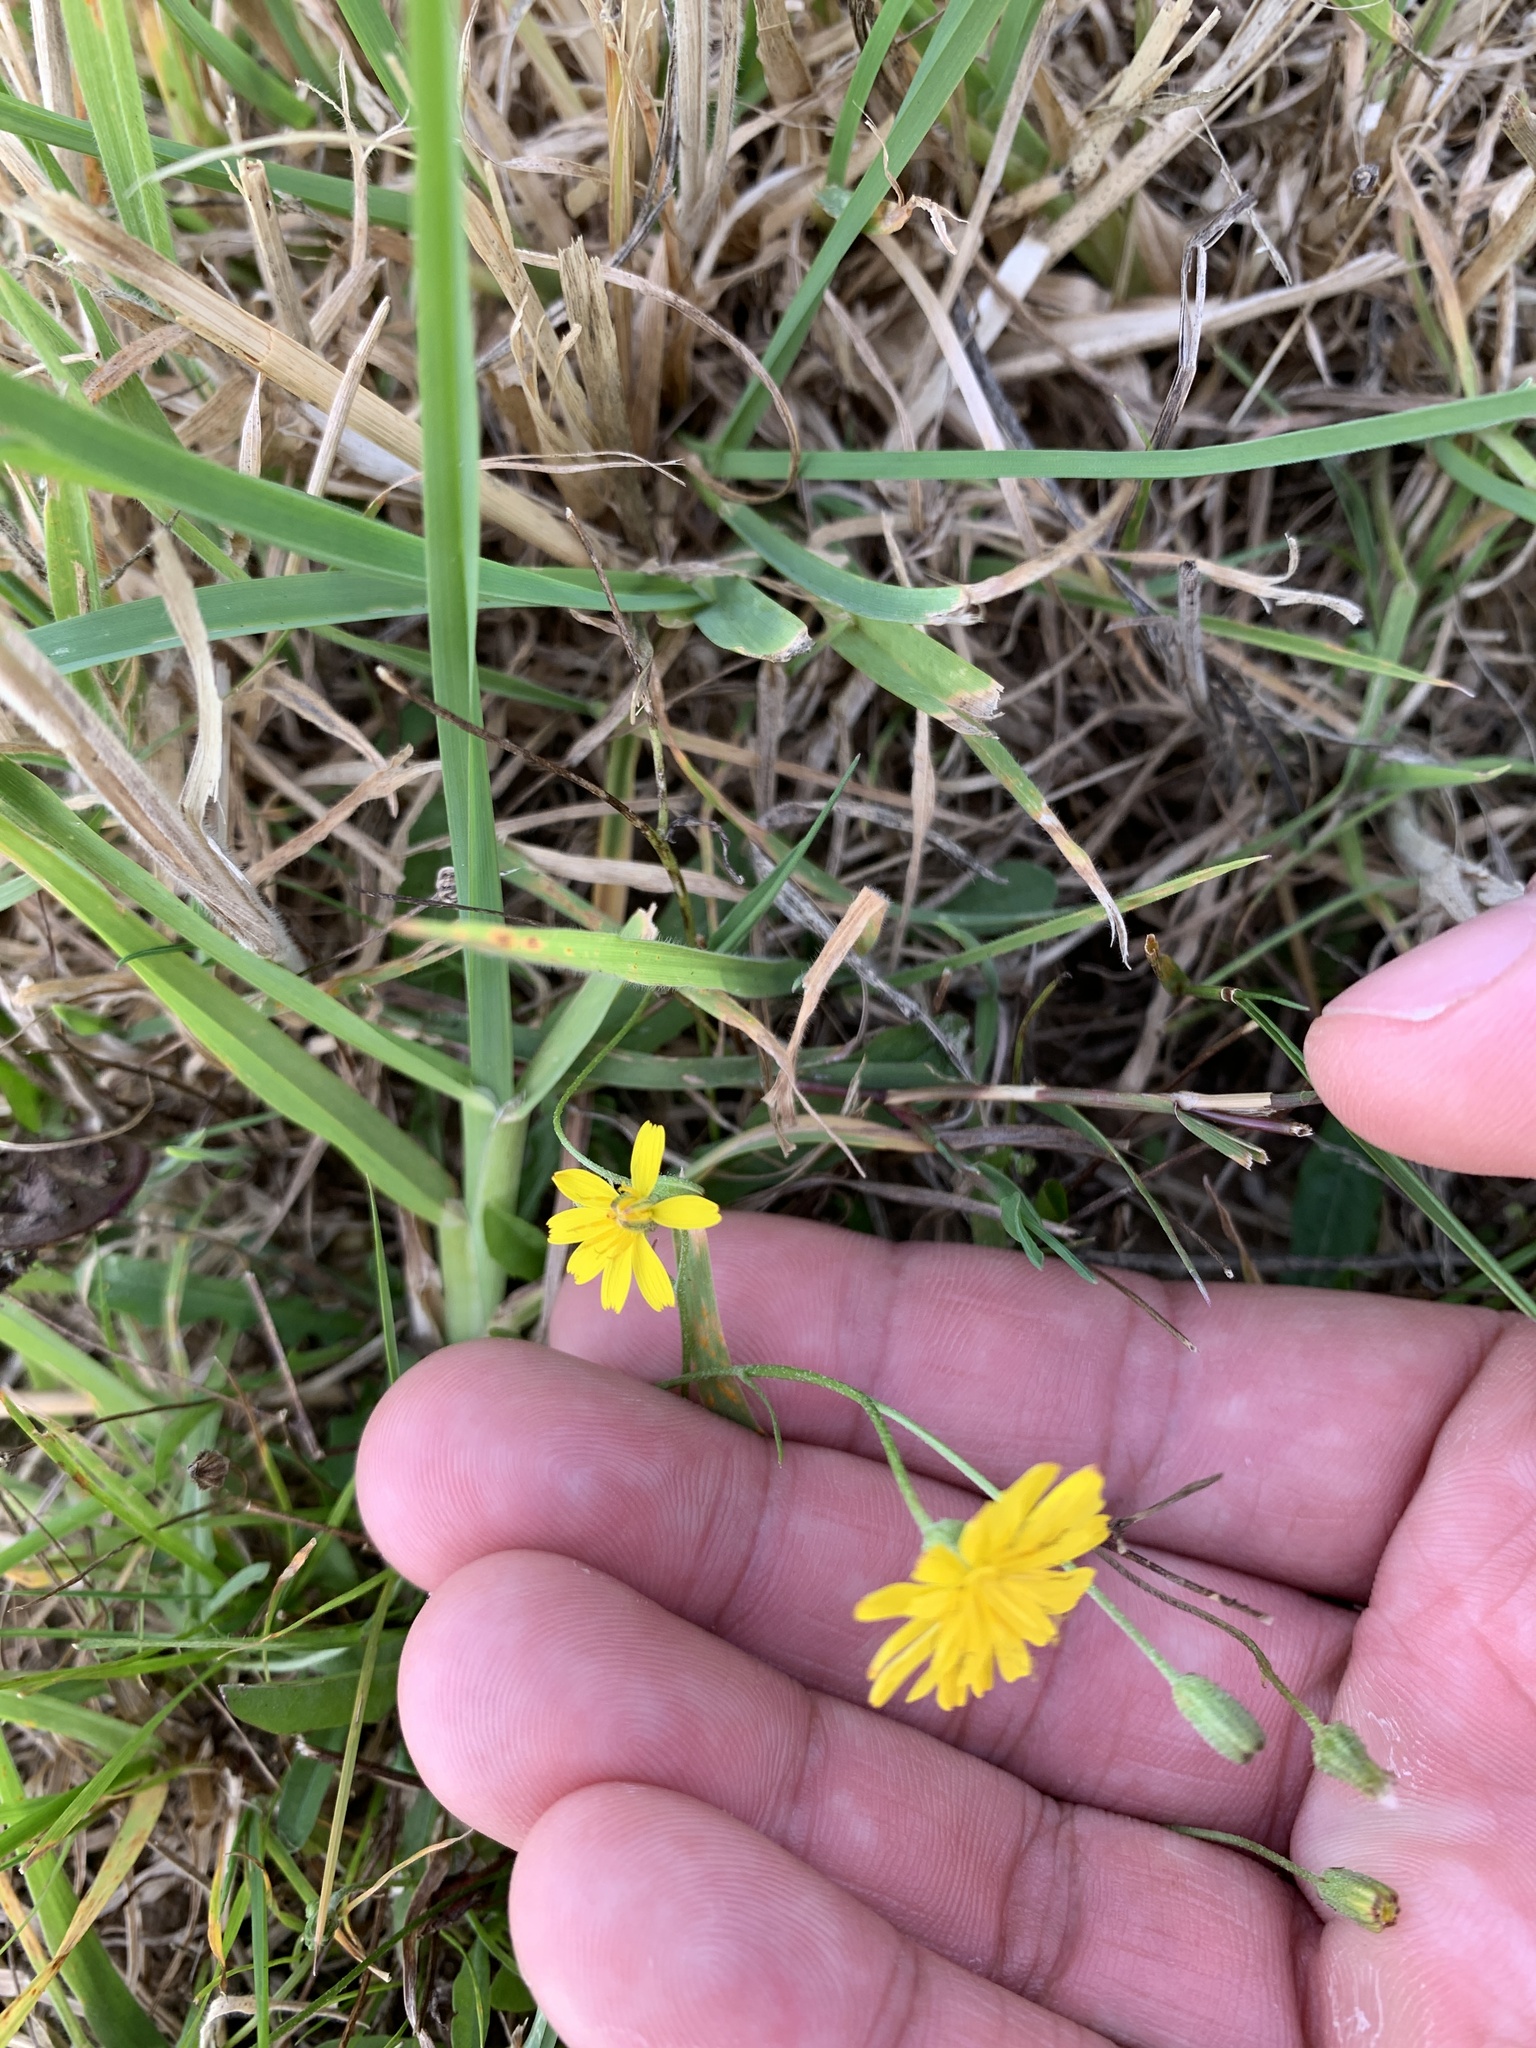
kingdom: Plantae
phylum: Tracheophyta
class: Magnoliopsida
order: Asterales
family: Asteraceae
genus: Crepis
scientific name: Crepis capillaris
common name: Smooth hawksbeard
